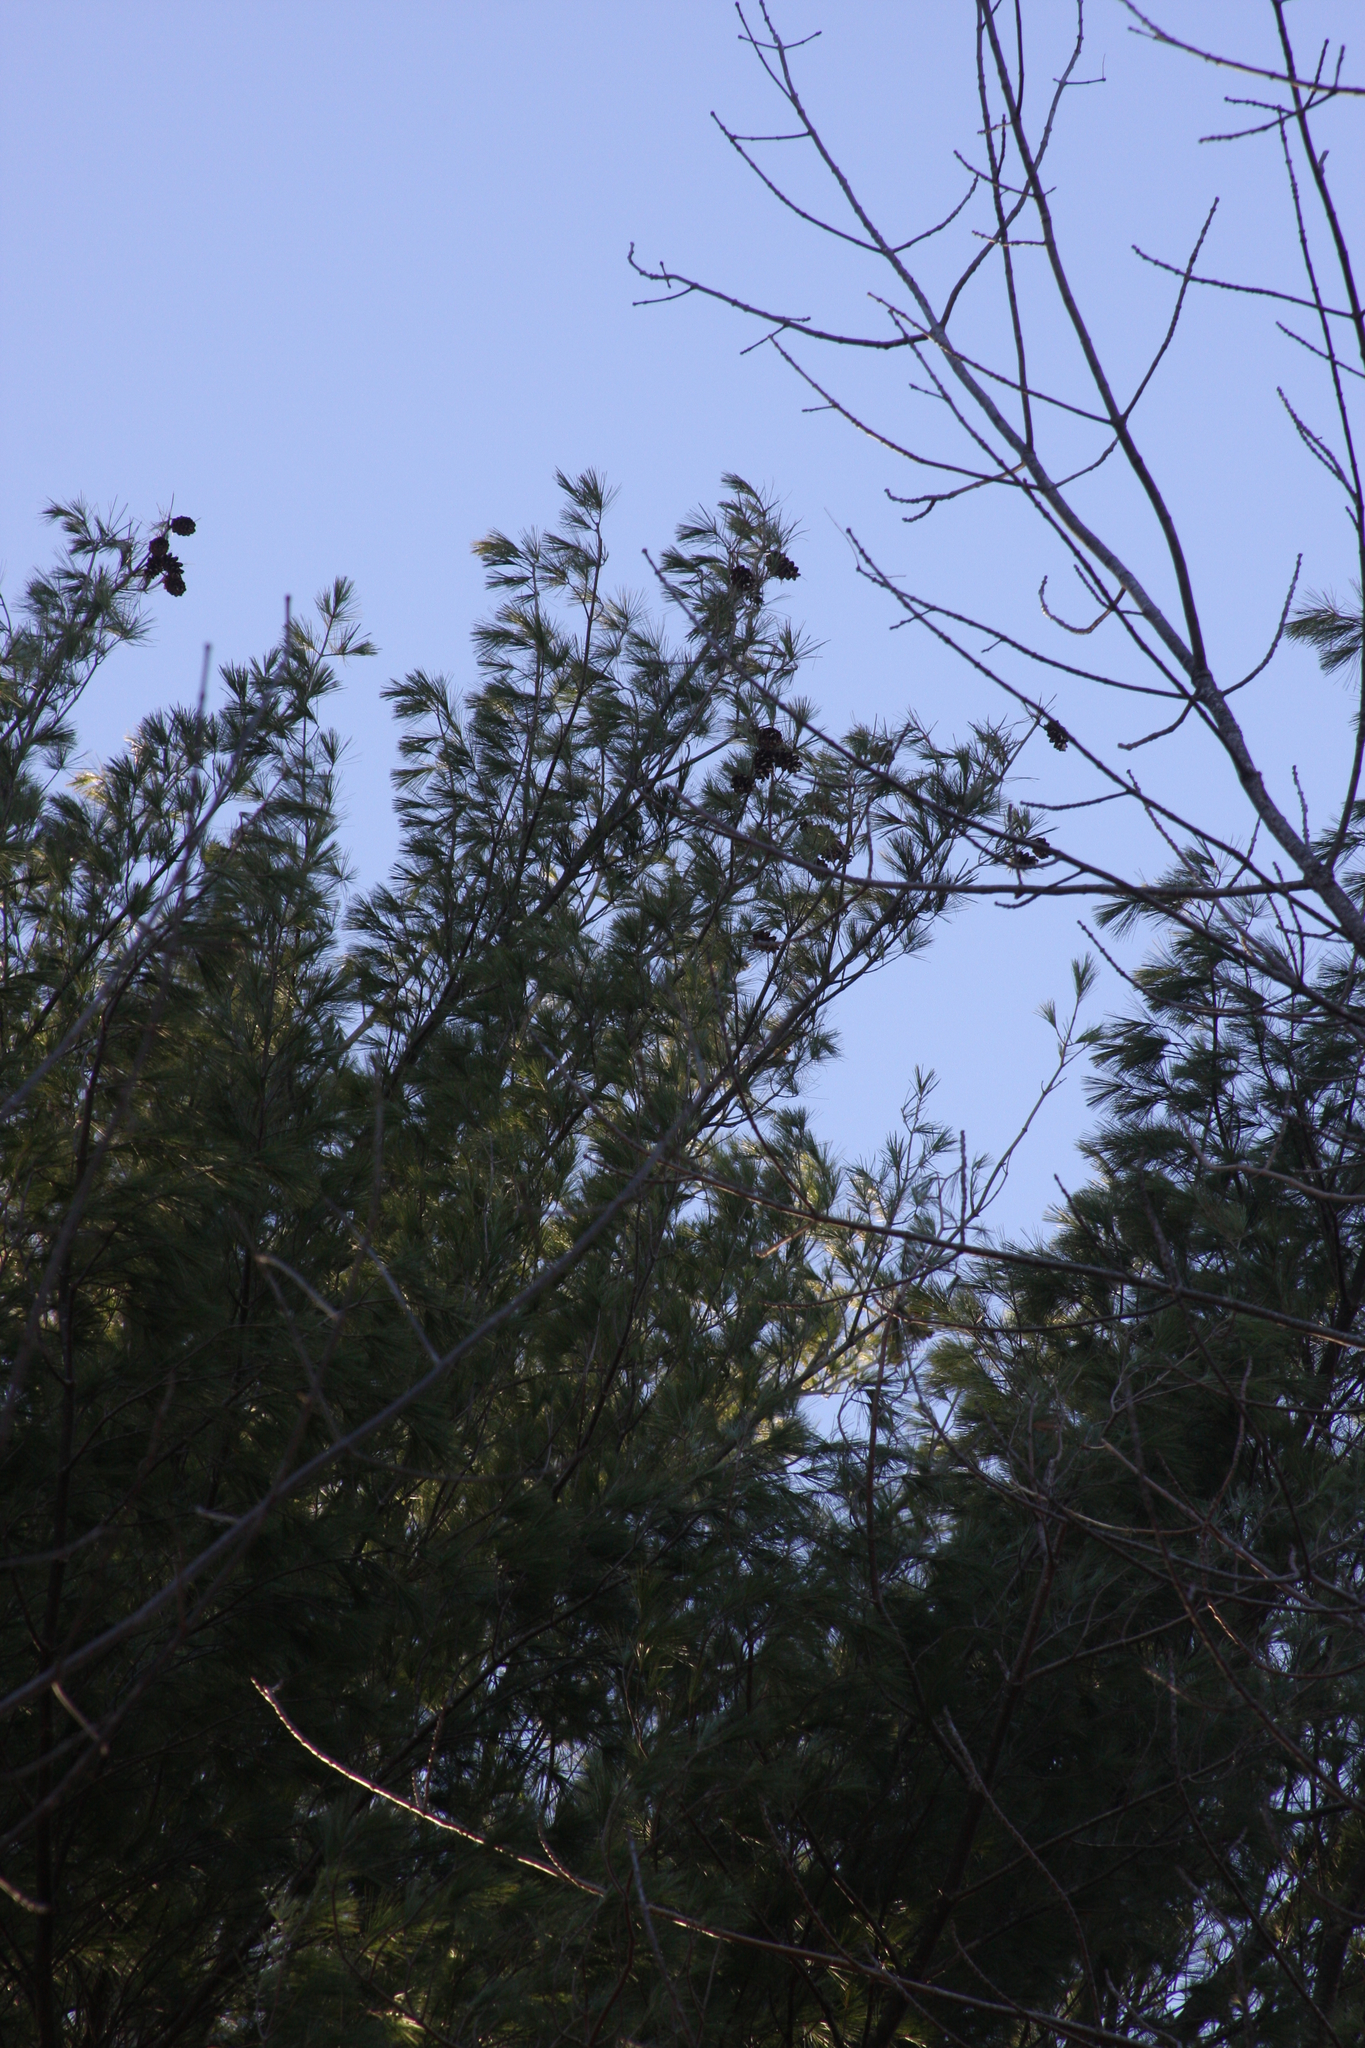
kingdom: Plantae
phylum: Tracheophyta
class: Pinopsida
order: Pinales
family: Pinaceae
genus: Pinus
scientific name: Pinus strobus
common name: Weymouth pine
